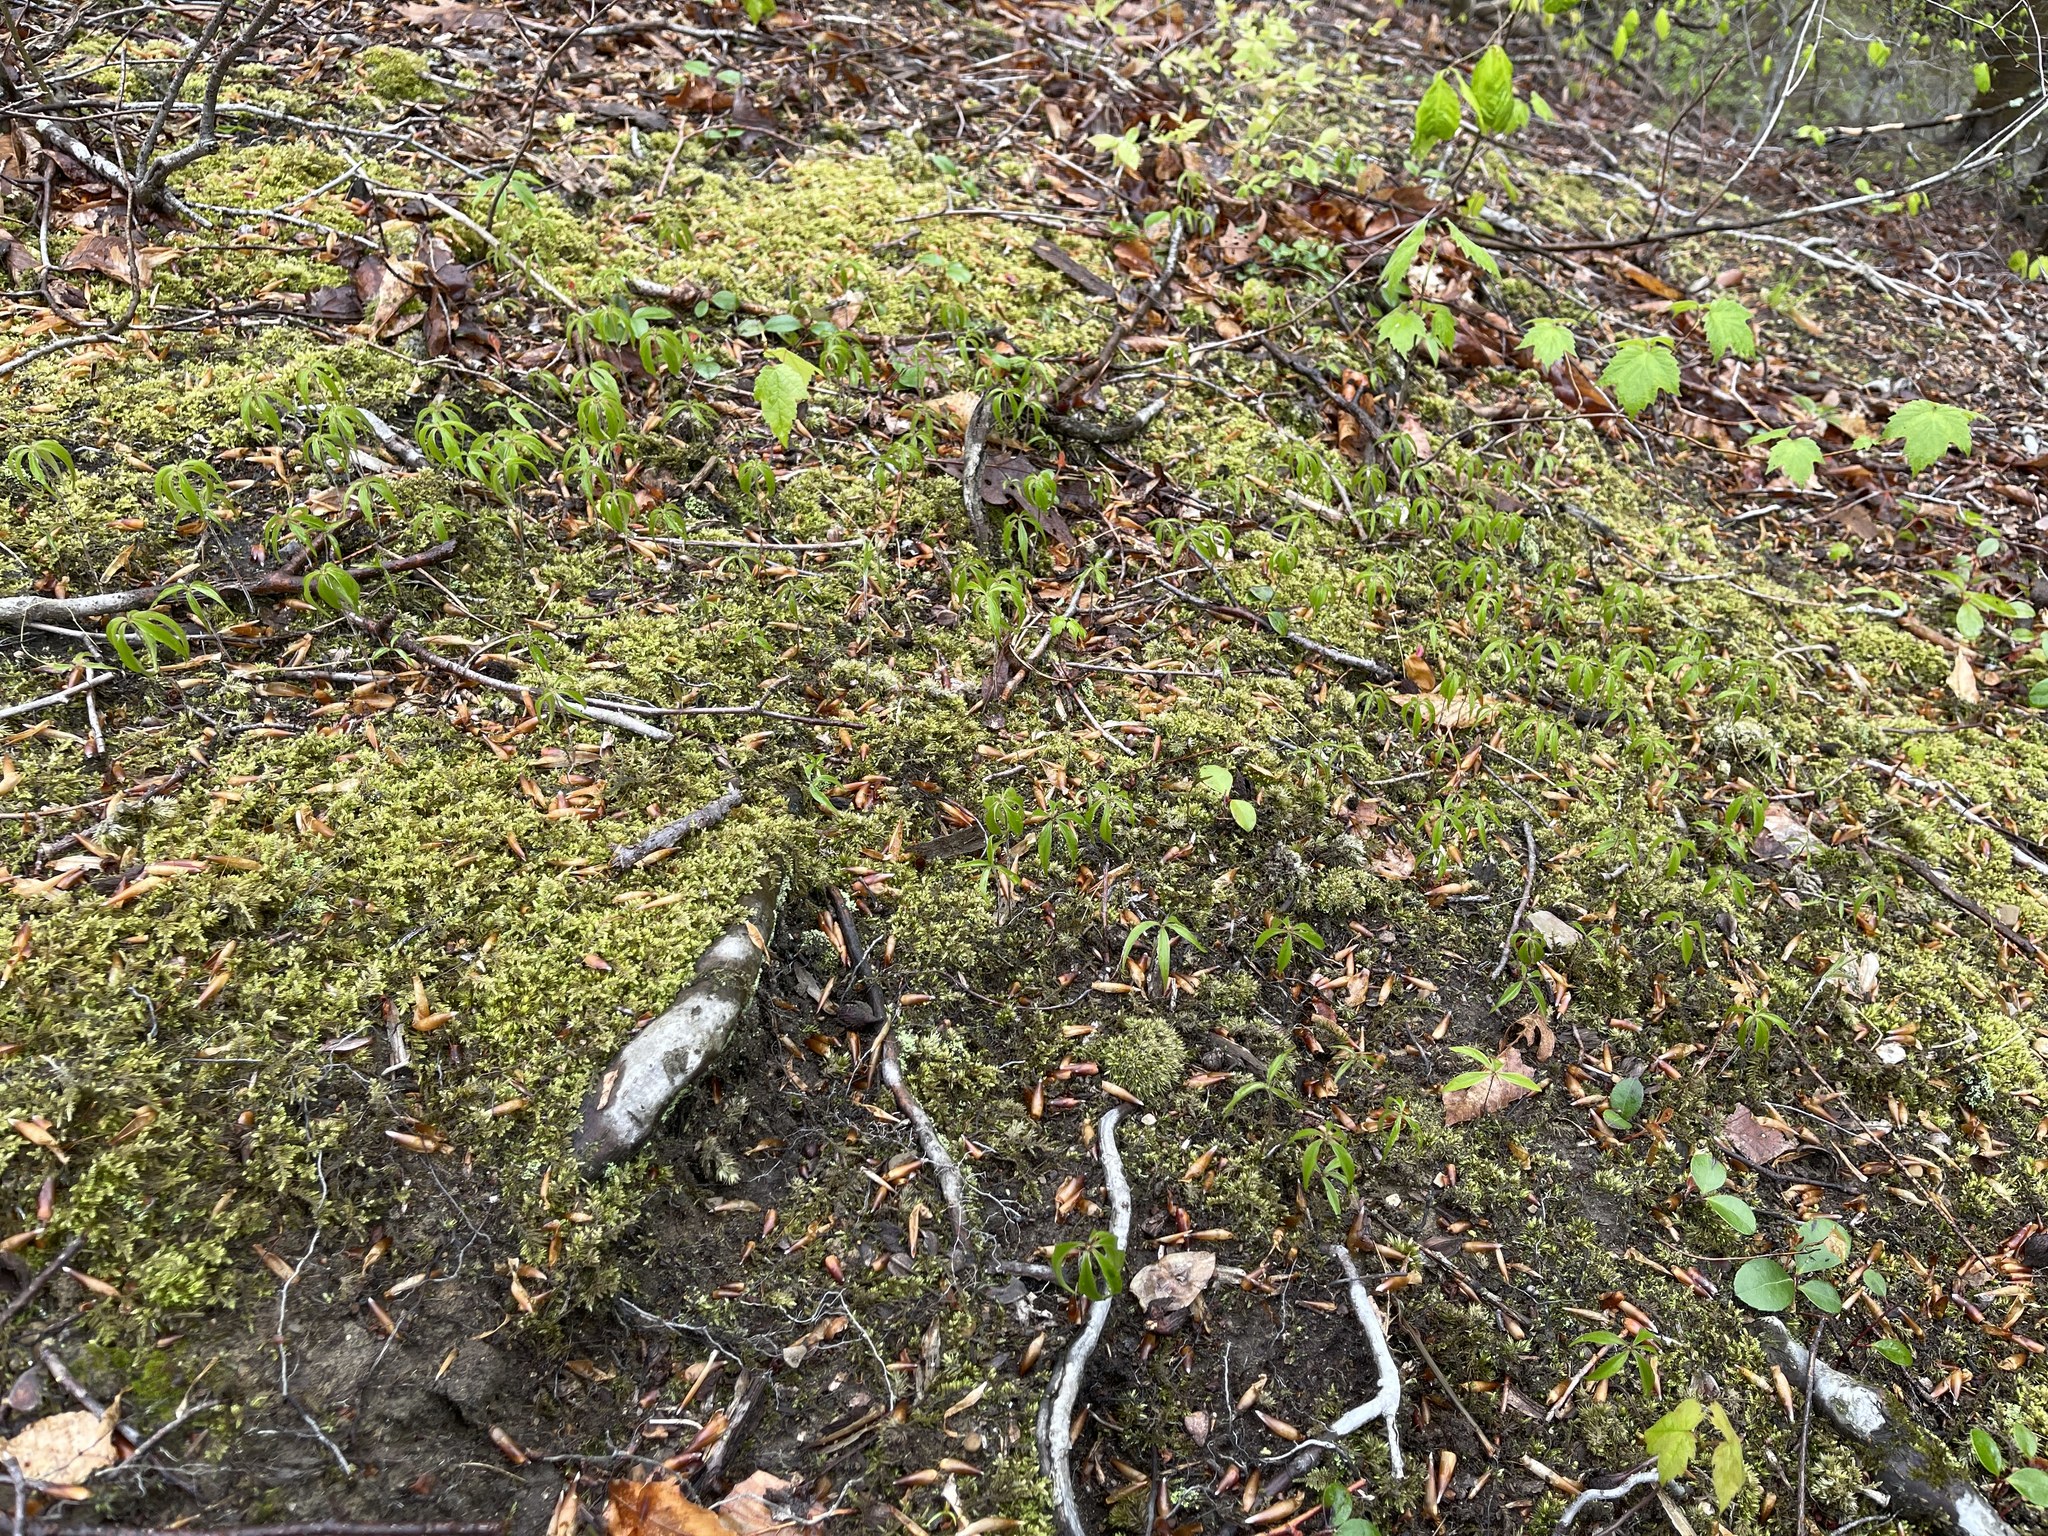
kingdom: Plantae
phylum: Tracheophyta
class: Liliopsida
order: Liliales
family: Liliaceae
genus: Medeola
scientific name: Medeola virginiana
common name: Indian cucumber-root
